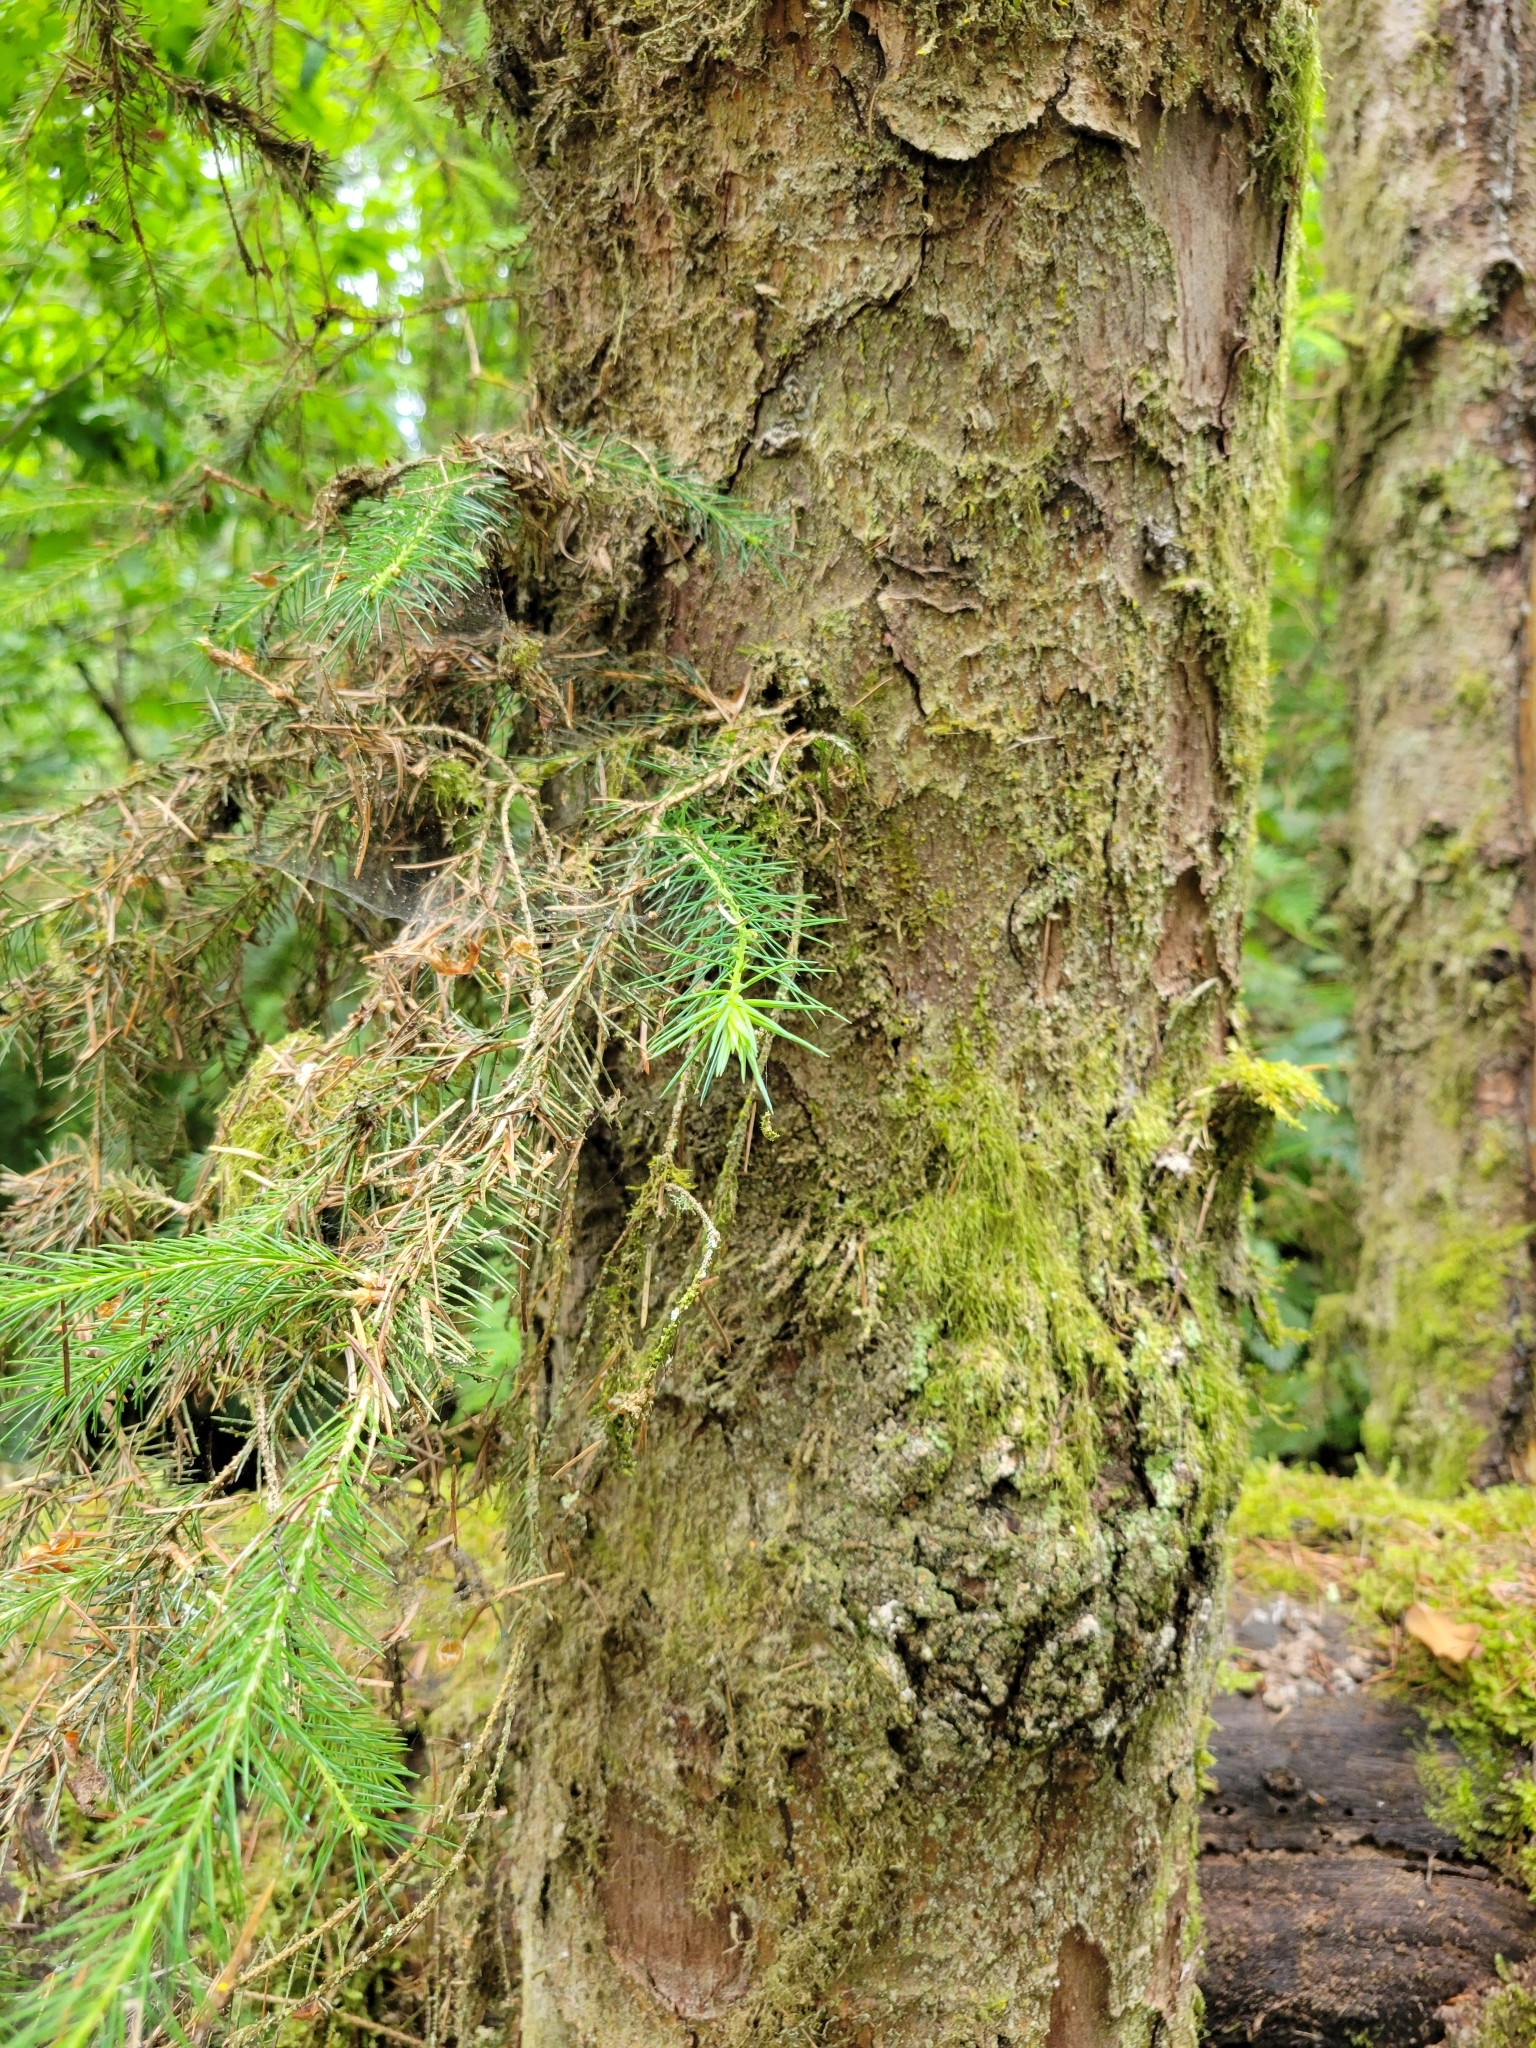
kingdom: Plantae
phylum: Tracheophyta
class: Pinopsida
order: Pinales
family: Pinaceae
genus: Picea
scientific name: Picea sitchensis
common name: Sitka spruce
